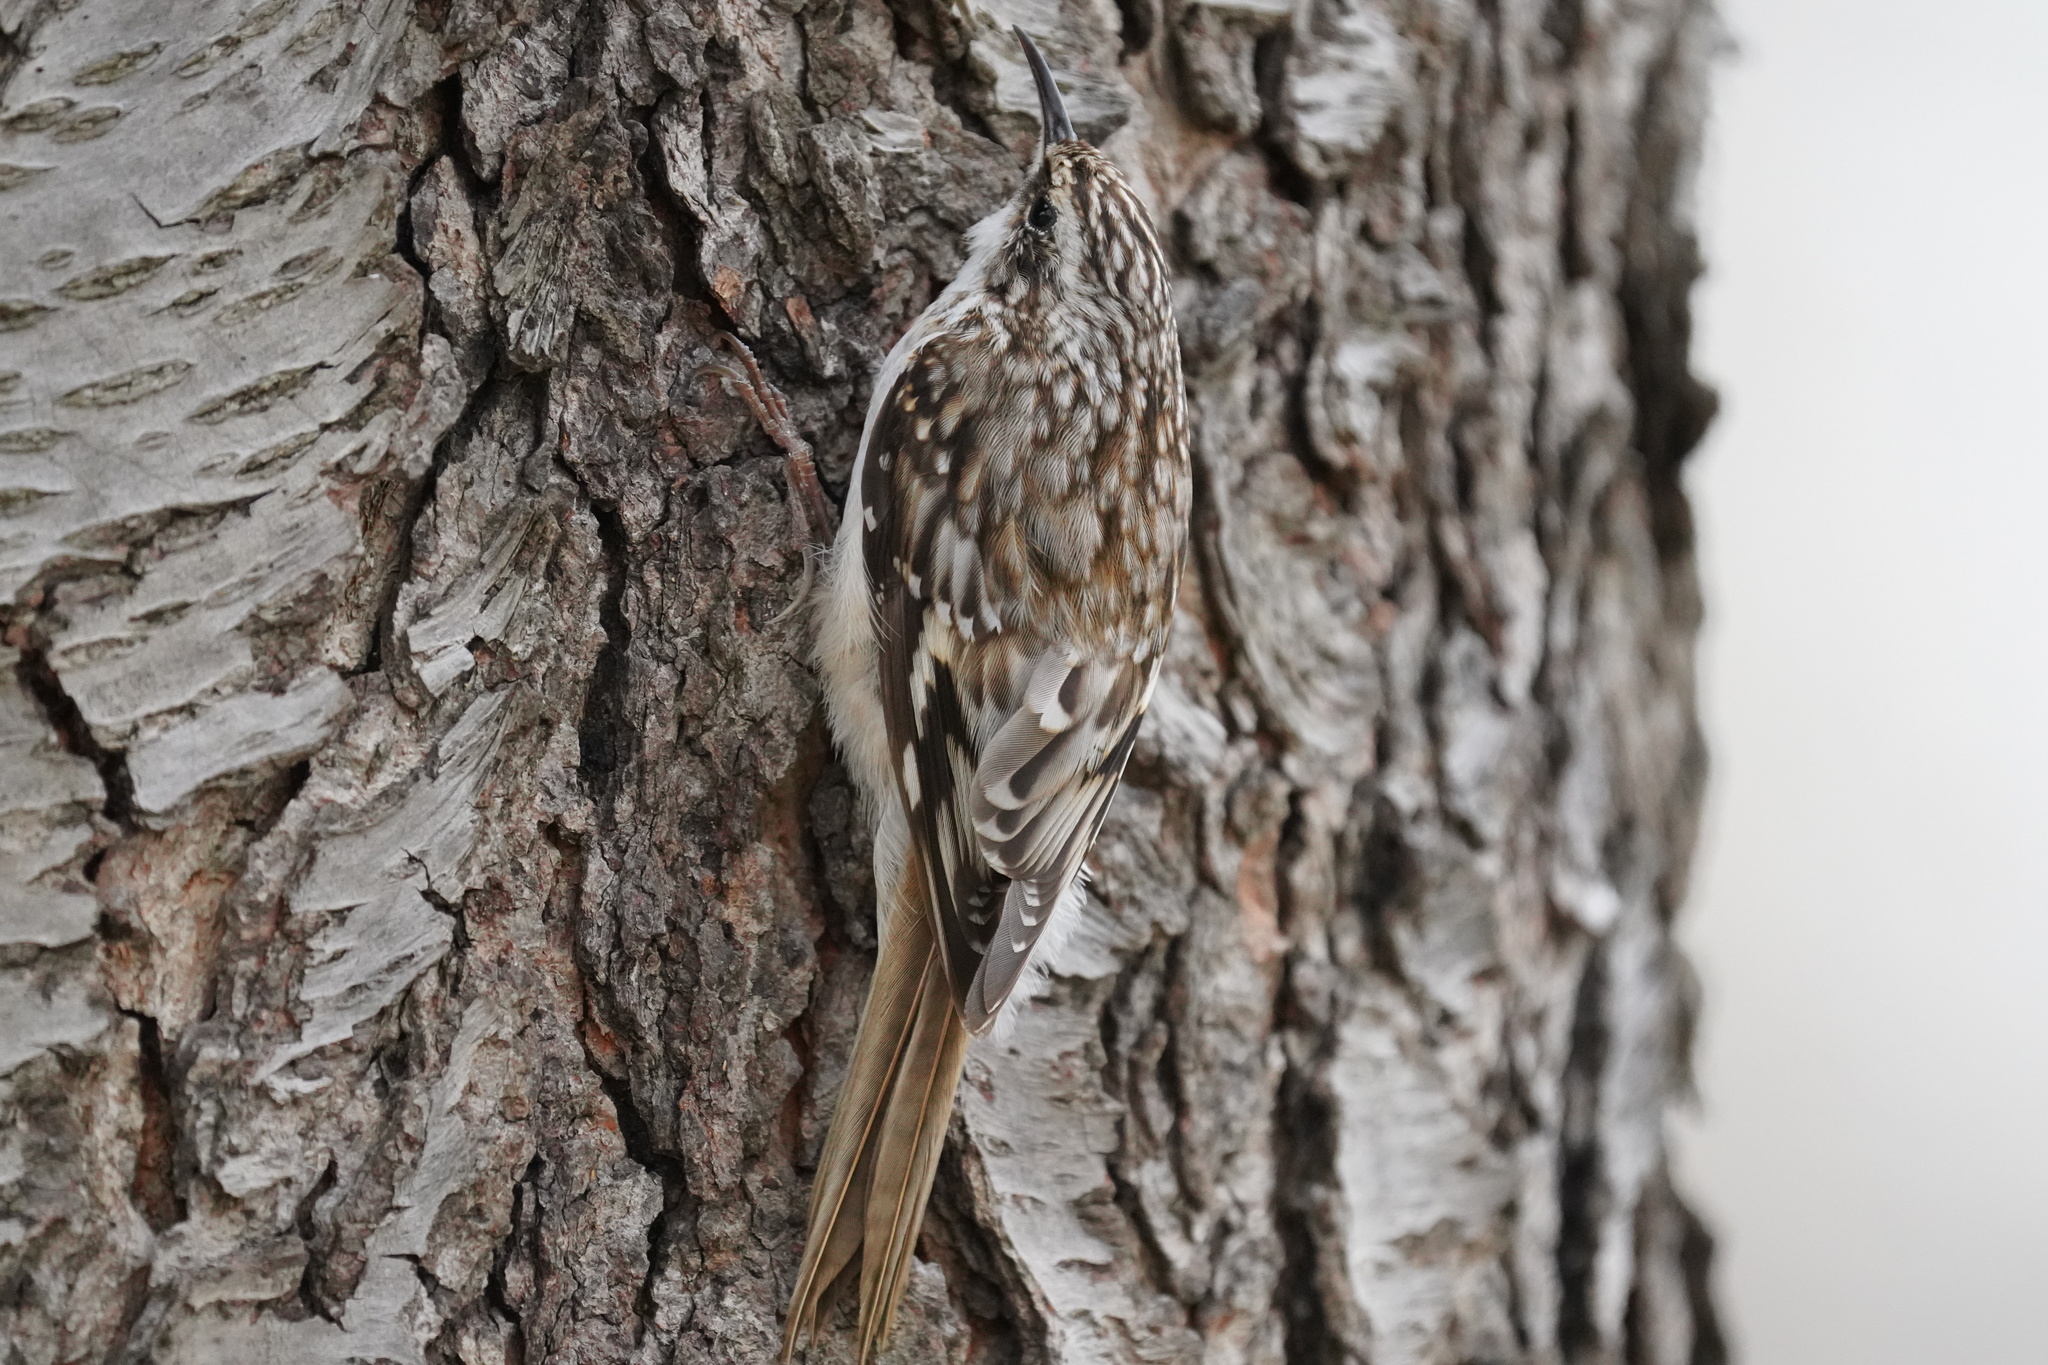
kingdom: Animalia
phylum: Chordata
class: Aves
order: Passeriformes
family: Certhiidae
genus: Certhia
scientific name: Certhia americana
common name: Brown creeper
